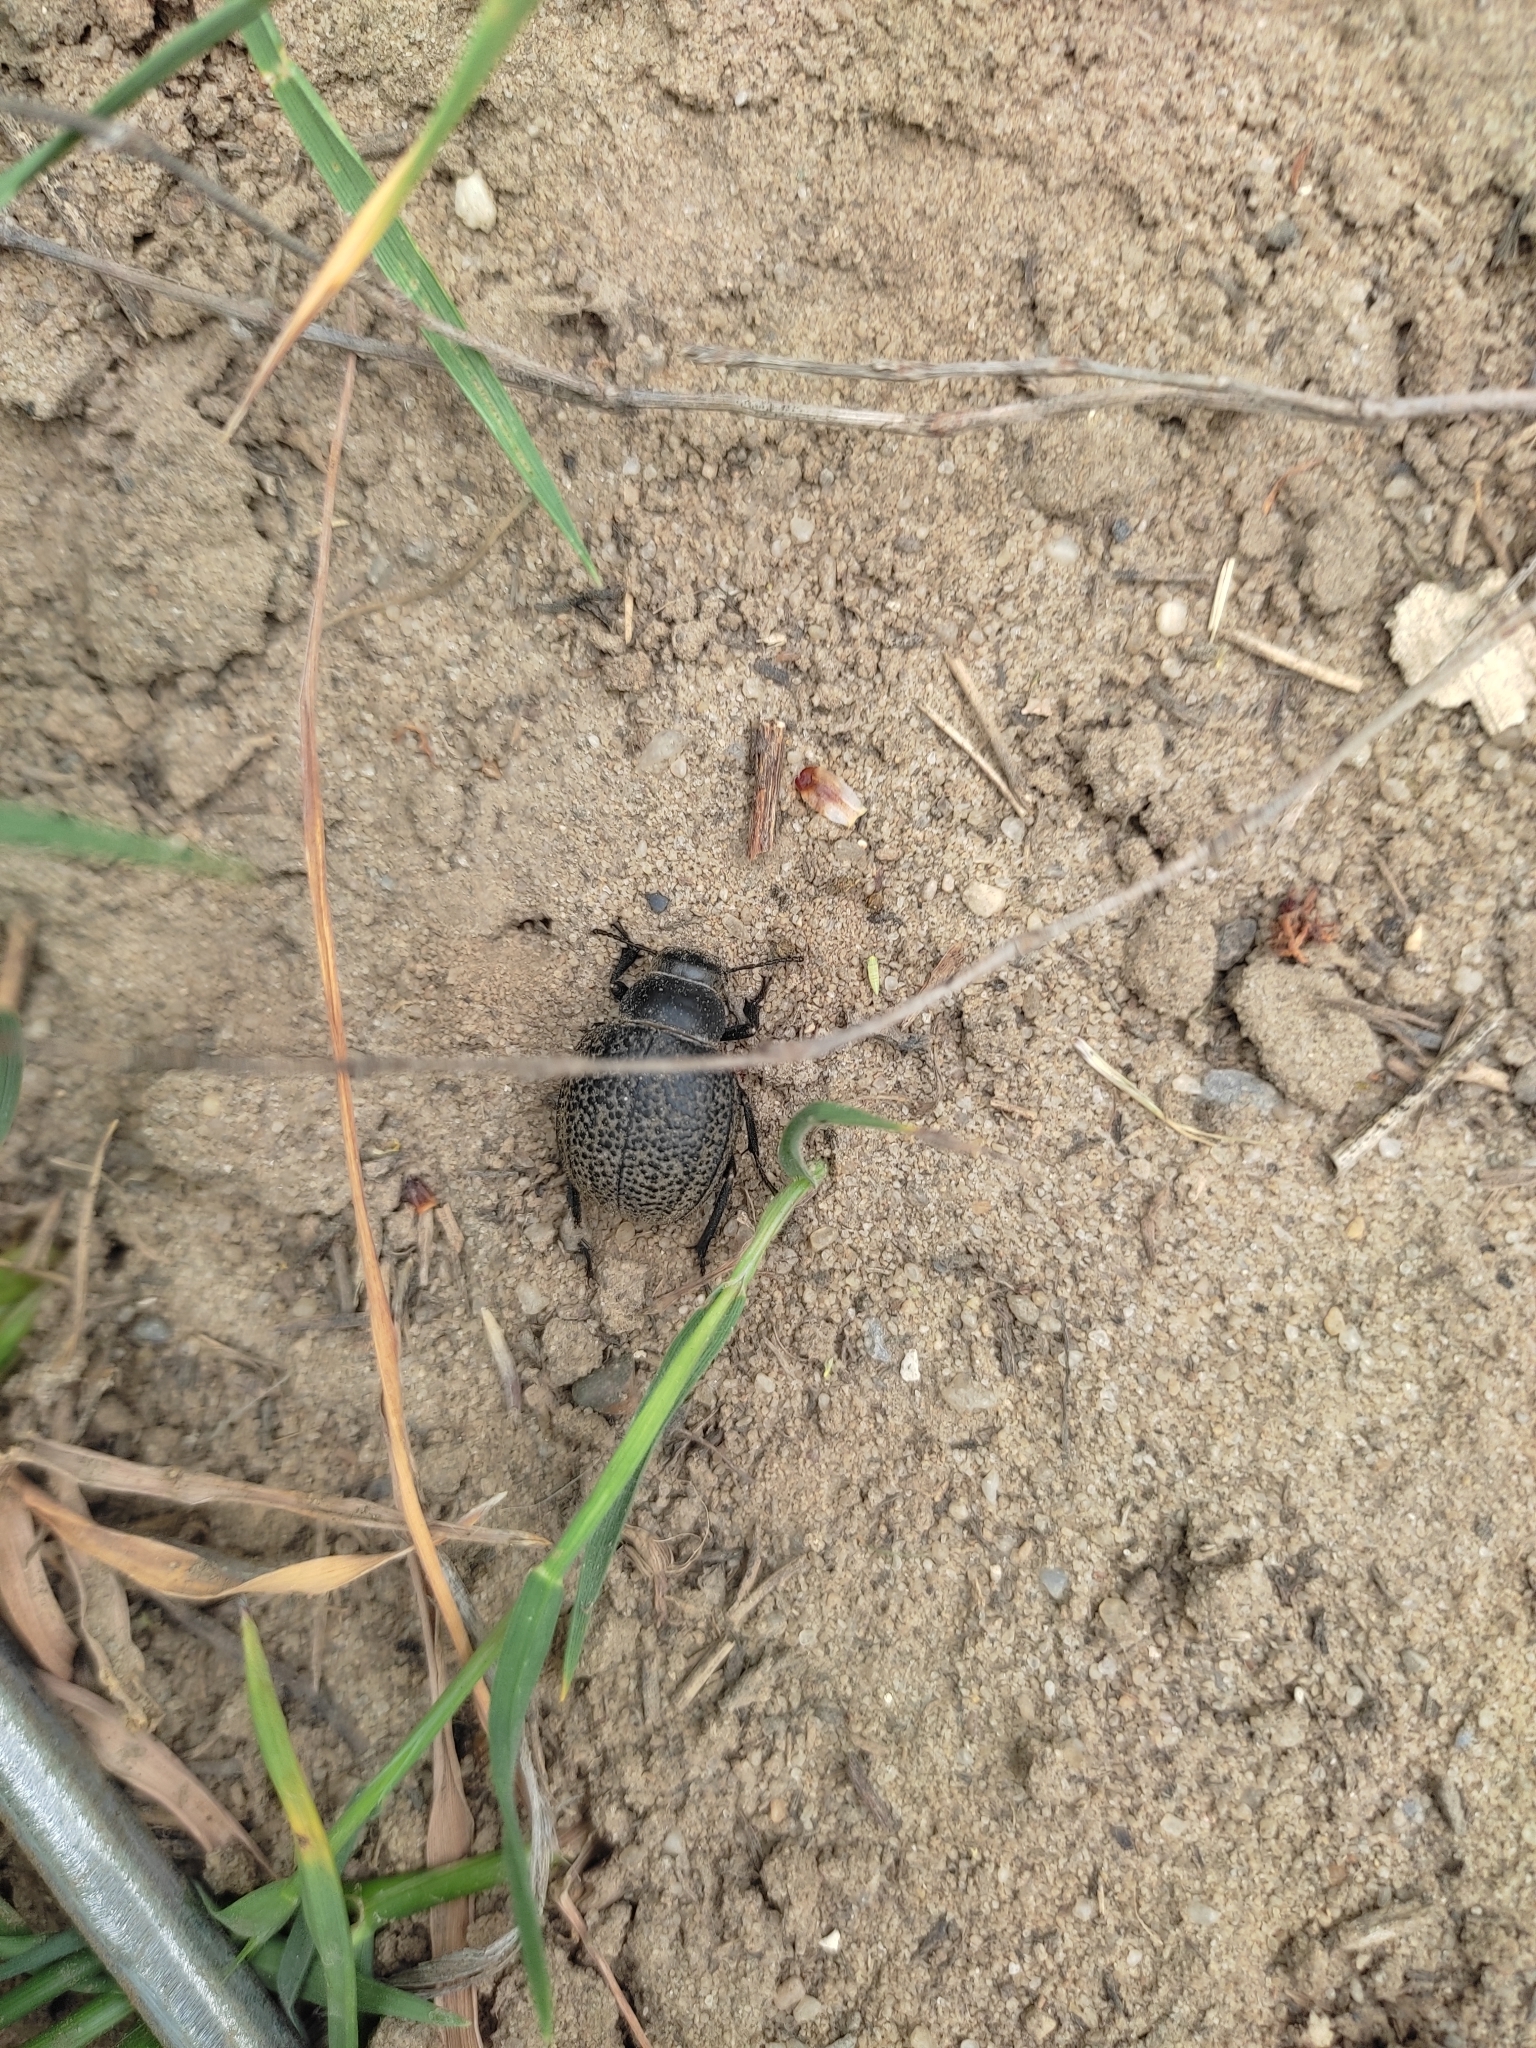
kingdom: Animalia
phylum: Arthropoda
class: Insecta
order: Coleoptera
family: Tenebrionidae
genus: Pimelia
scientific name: Pimelia subglobosa
